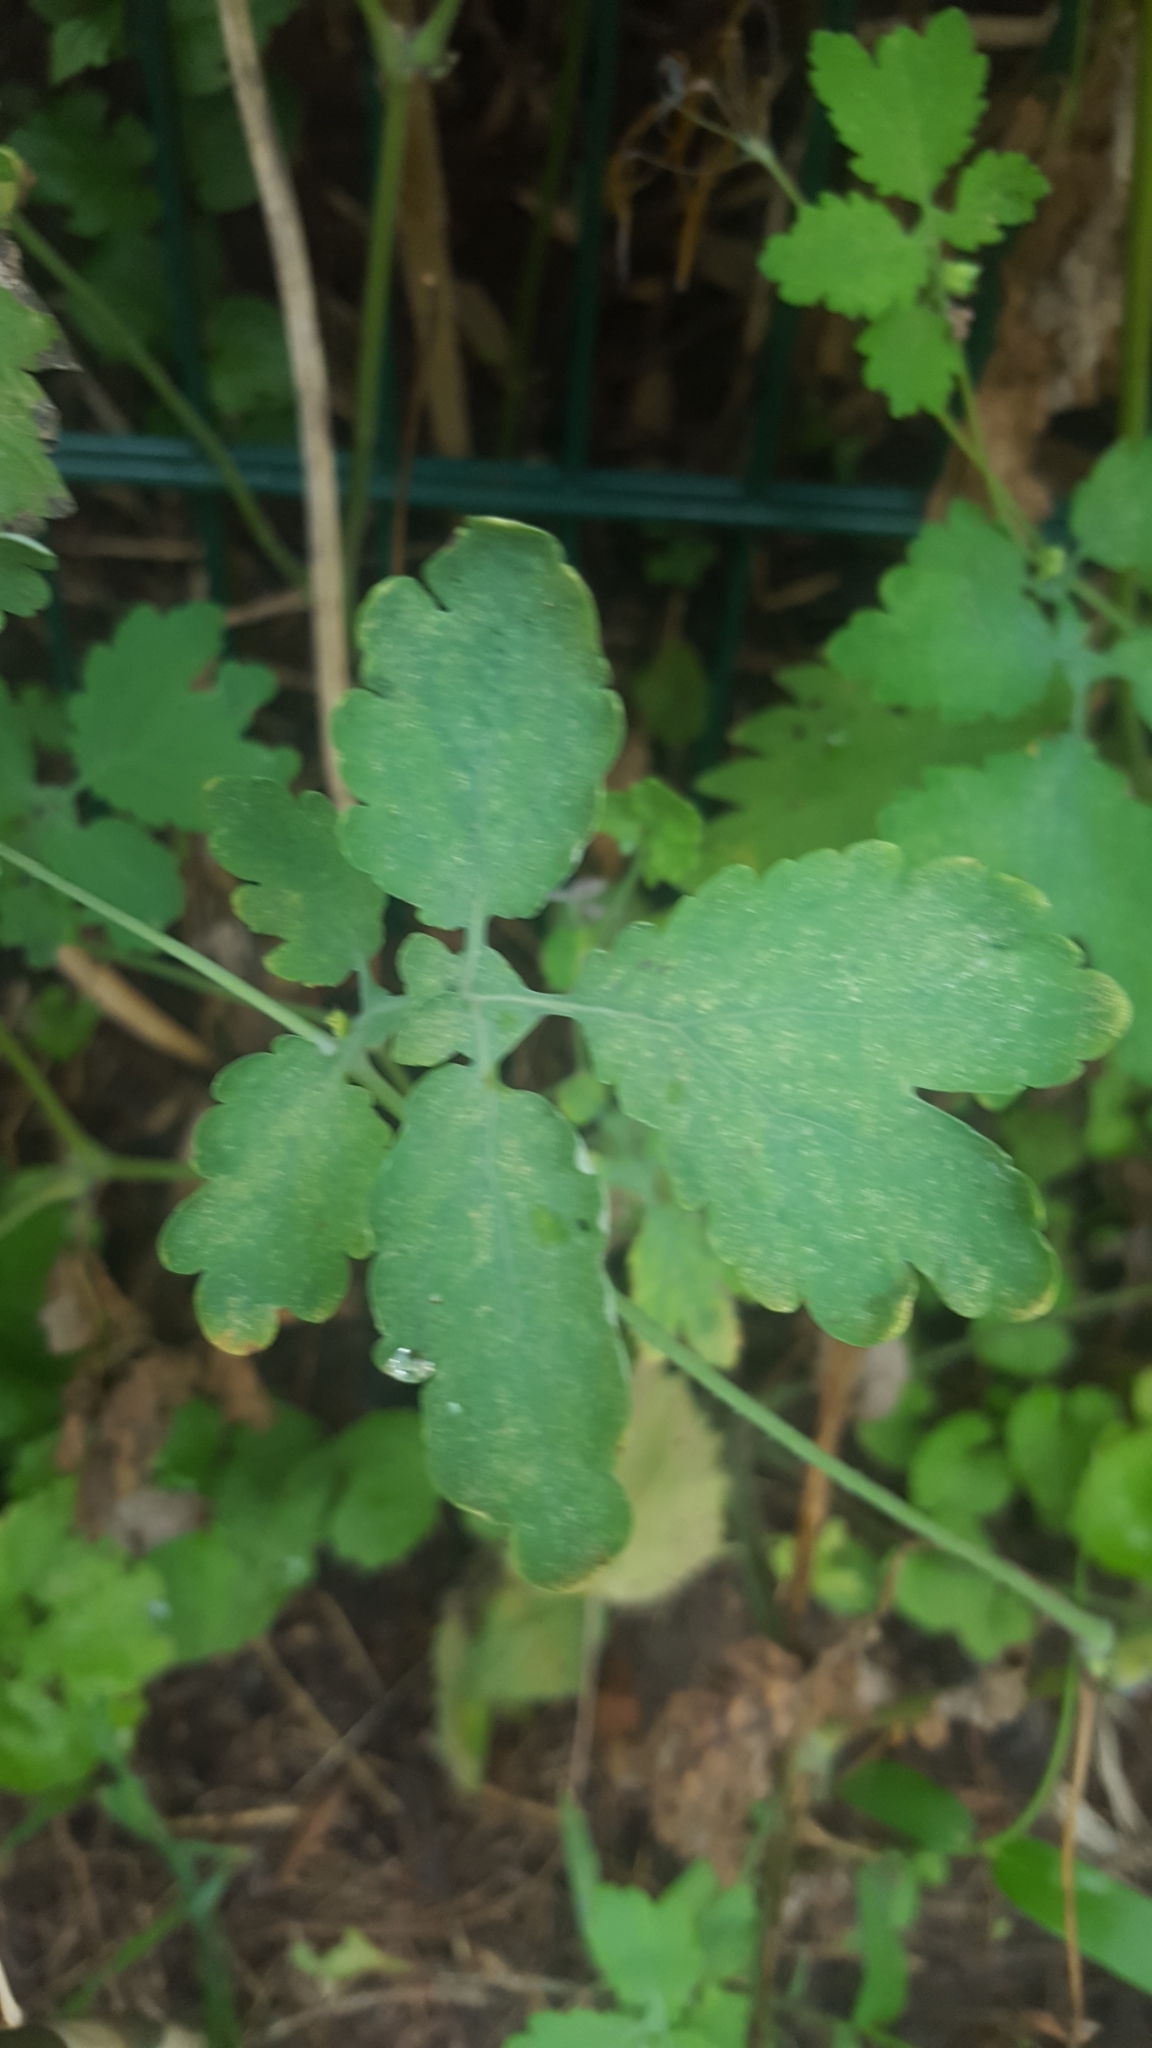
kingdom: Plantae
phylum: Tracheophyta
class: Magnoliopsida
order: Ranunculales
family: Papaveraceae
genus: Chelidonium
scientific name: Chelidonium majus
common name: Greater celandine
